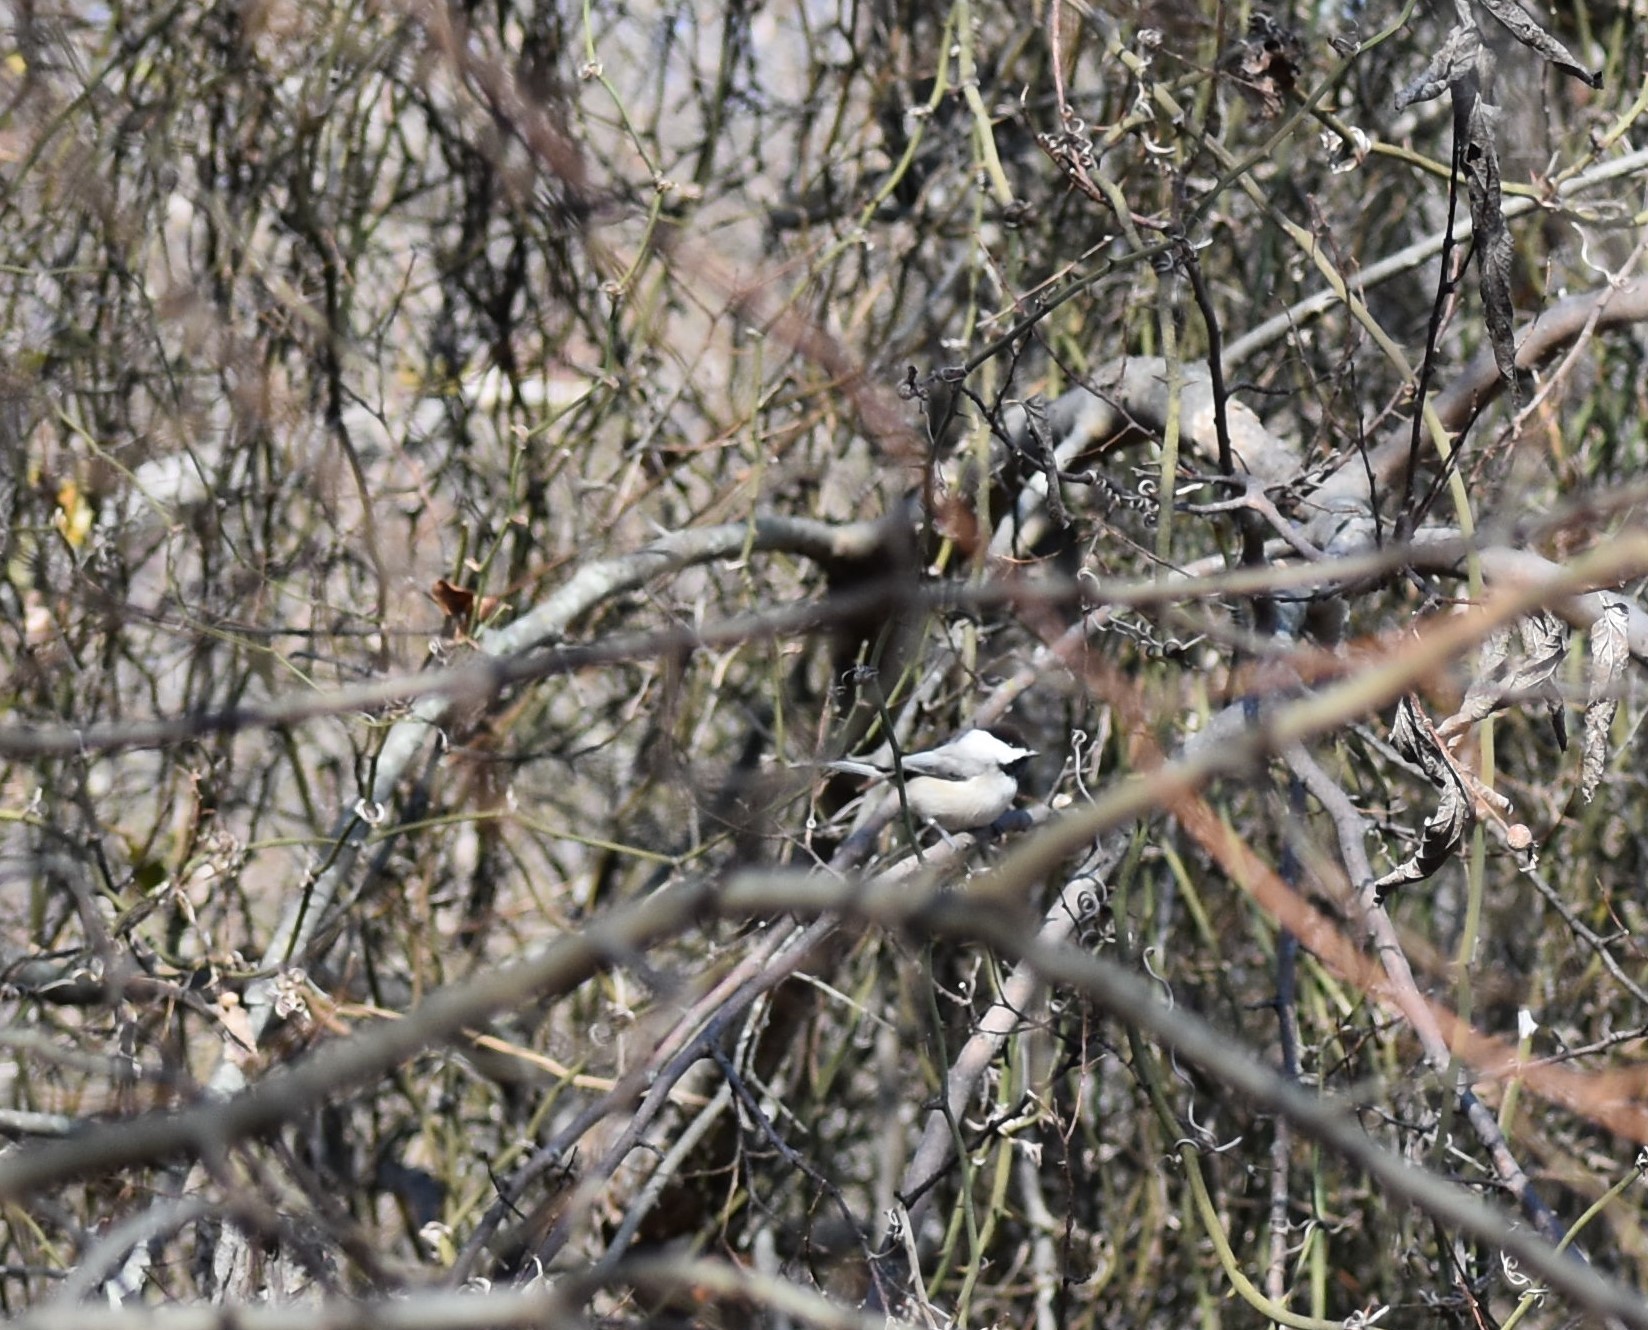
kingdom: Animalia
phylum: Chordata
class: Aves
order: Passeriformes
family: Paridae
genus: Poecile
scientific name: Poecile carolinensis
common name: Carolina chickadee
